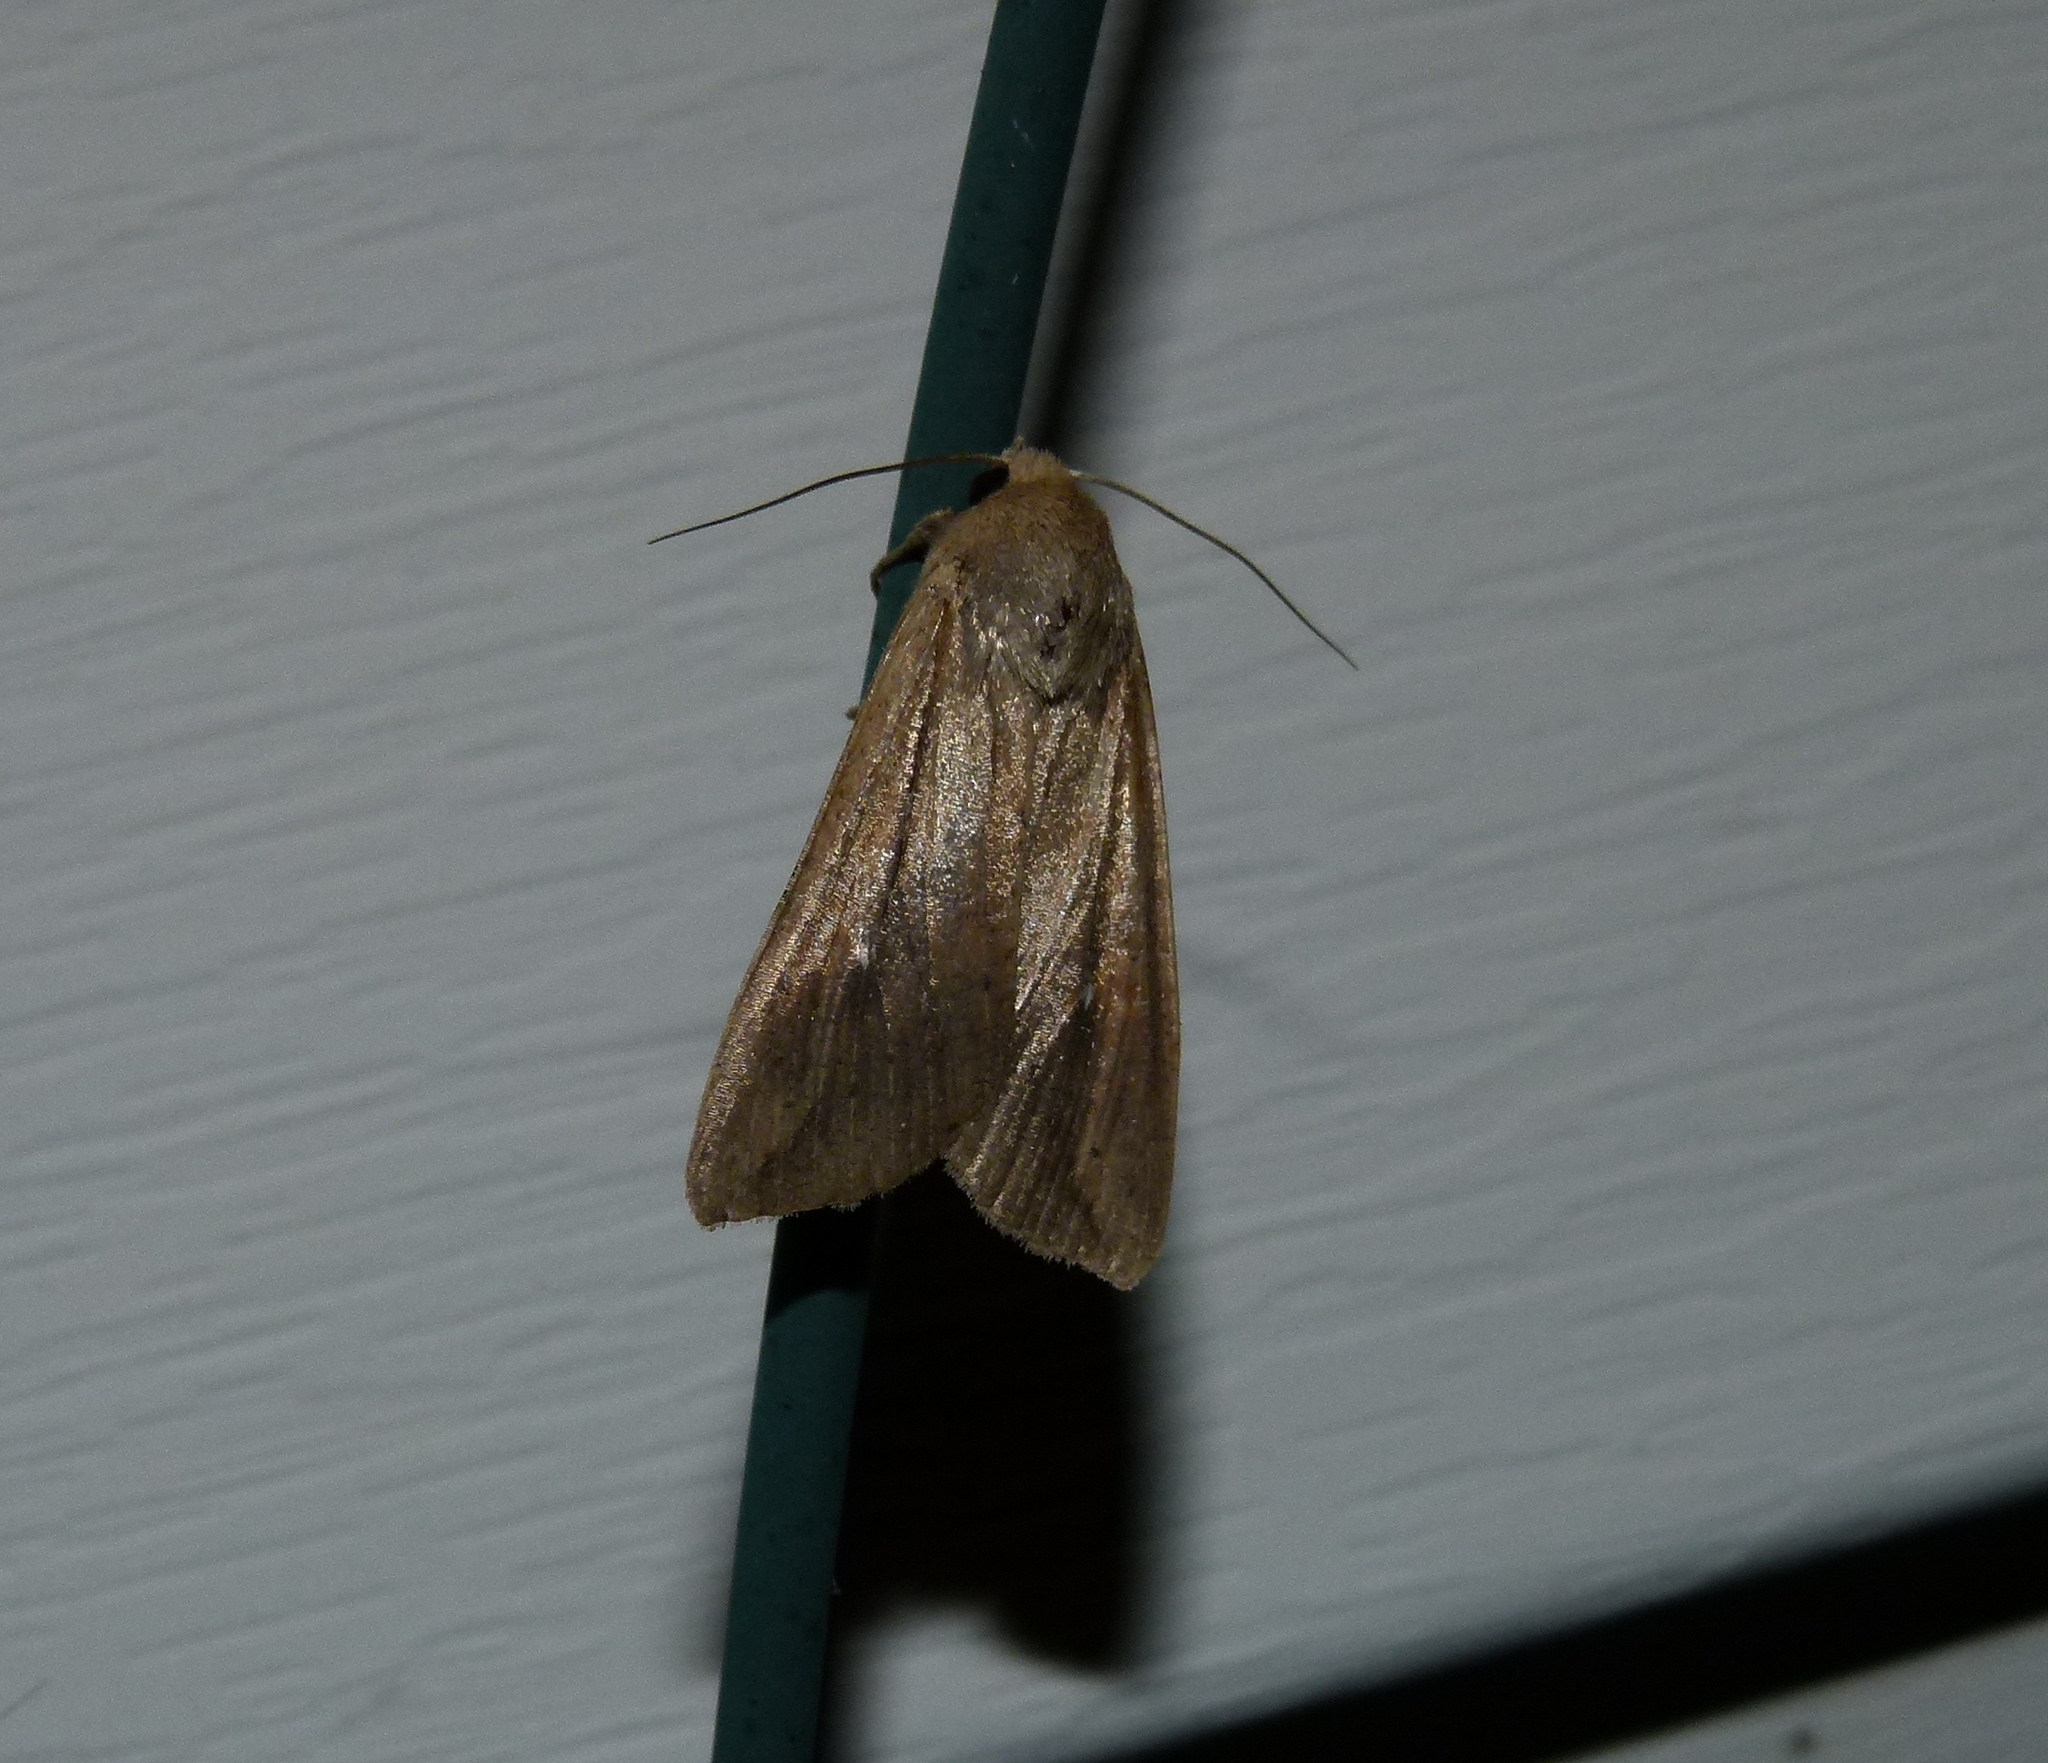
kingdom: Animalia
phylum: Arthropoda
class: Insecta
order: Lepidoptera
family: Noctuidae
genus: Mythimna
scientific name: Mythimna unipuncta
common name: White-speck
